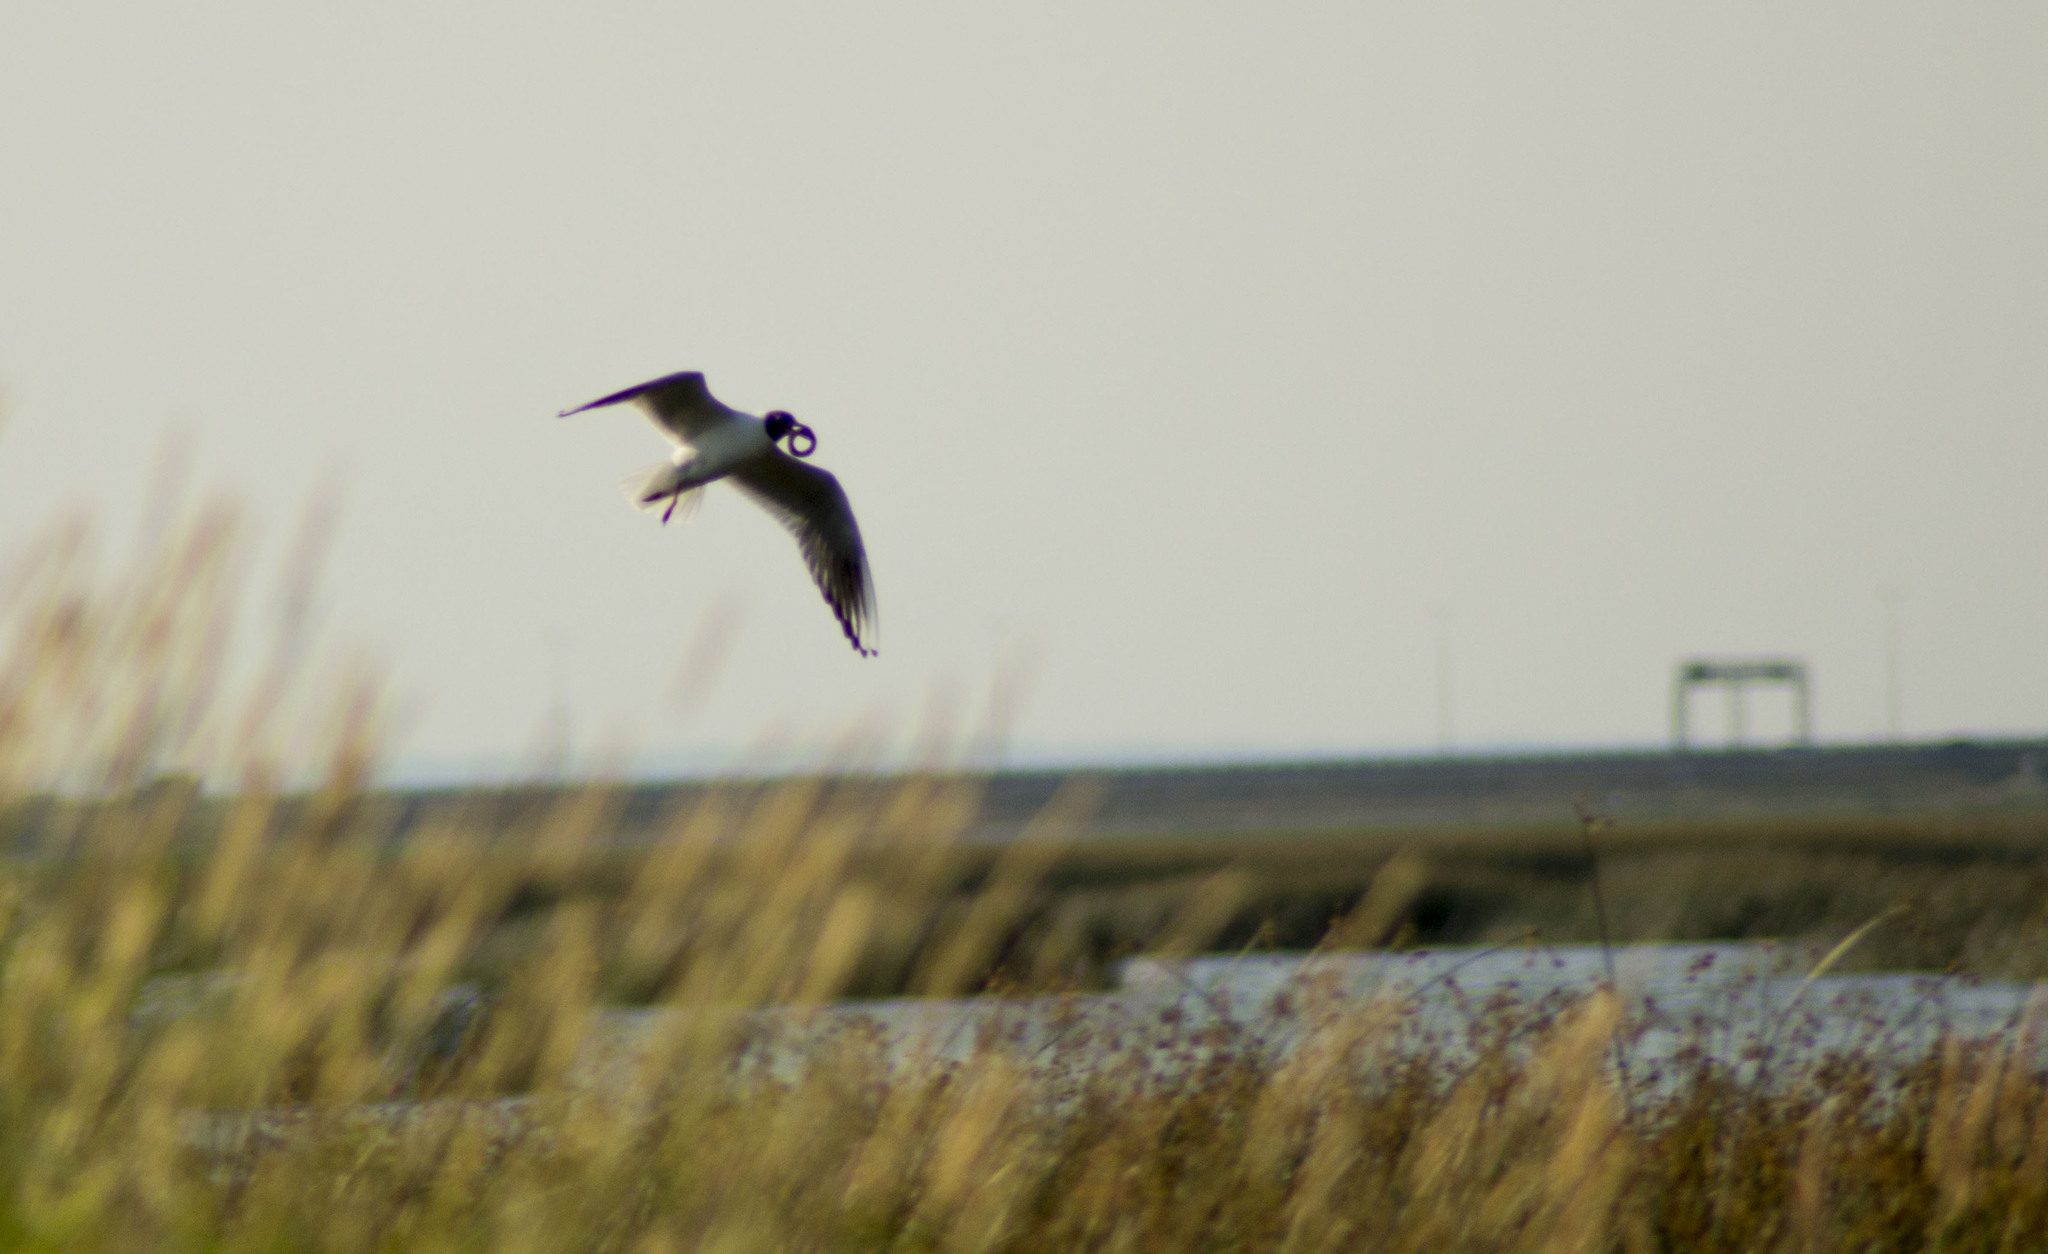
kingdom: Animalia
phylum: Chordata
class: Aves
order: Charadriiformes
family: Laridae
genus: Chroicocephalus
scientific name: Chroicocephalus ridibundus
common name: Black-headed gull
